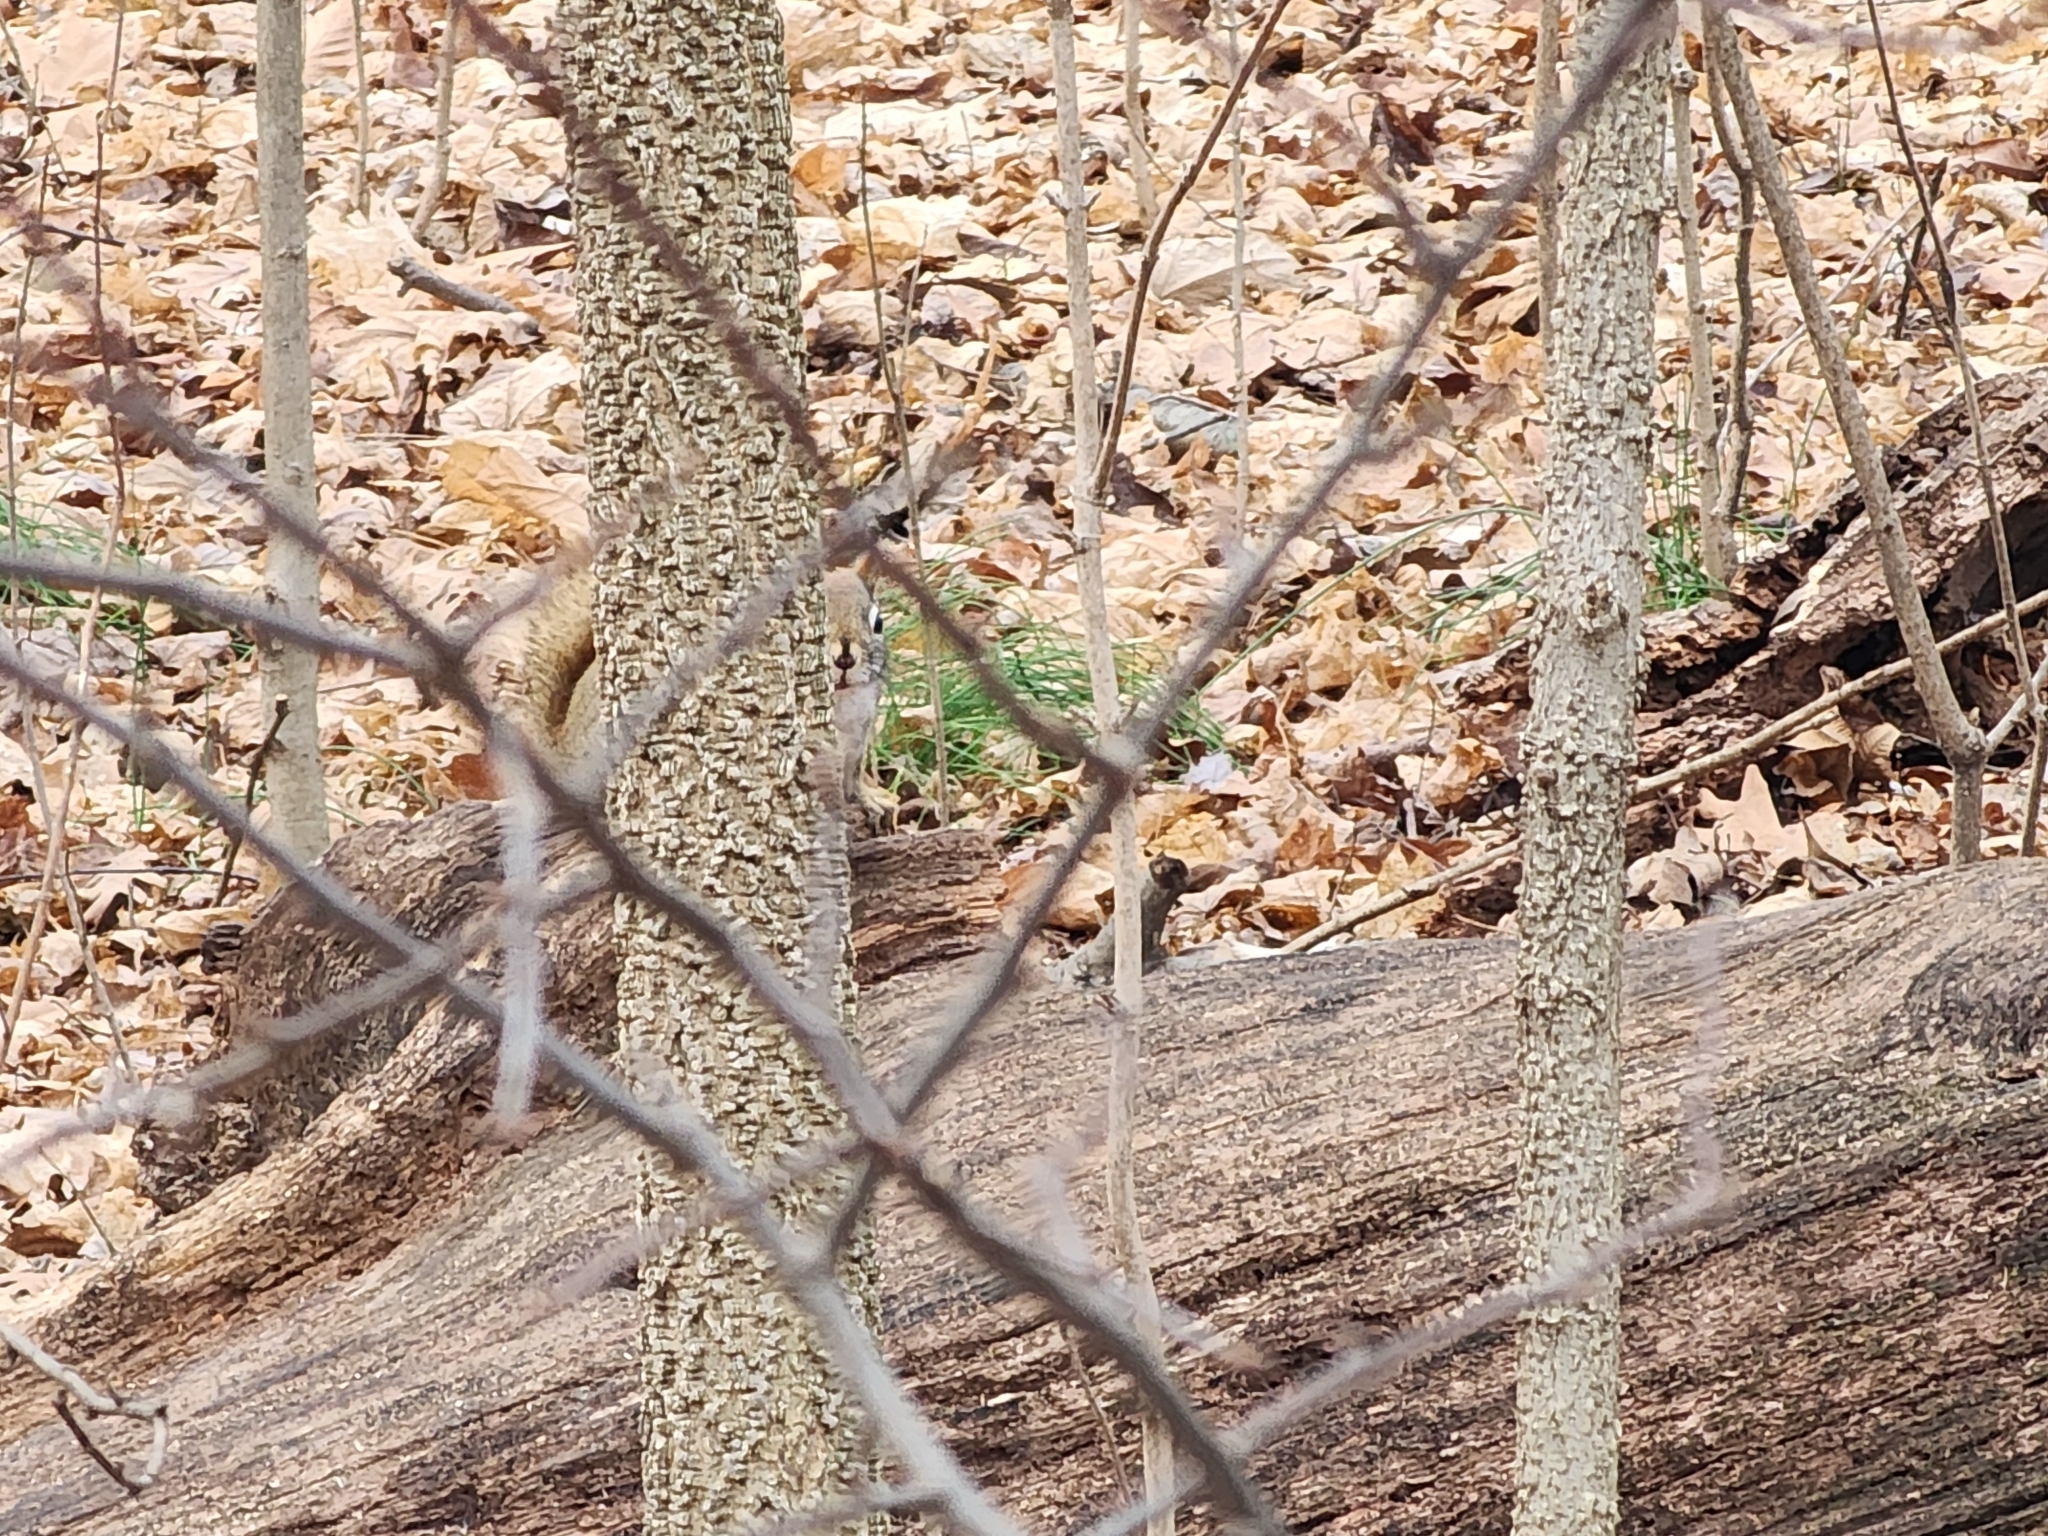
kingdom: Animalia
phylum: Chordata
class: Mammalia
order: Rodentia
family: Sciuridae
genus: Tamiasciurus
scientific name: Tamiasciurus hudsonicus
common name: Red squirrel
